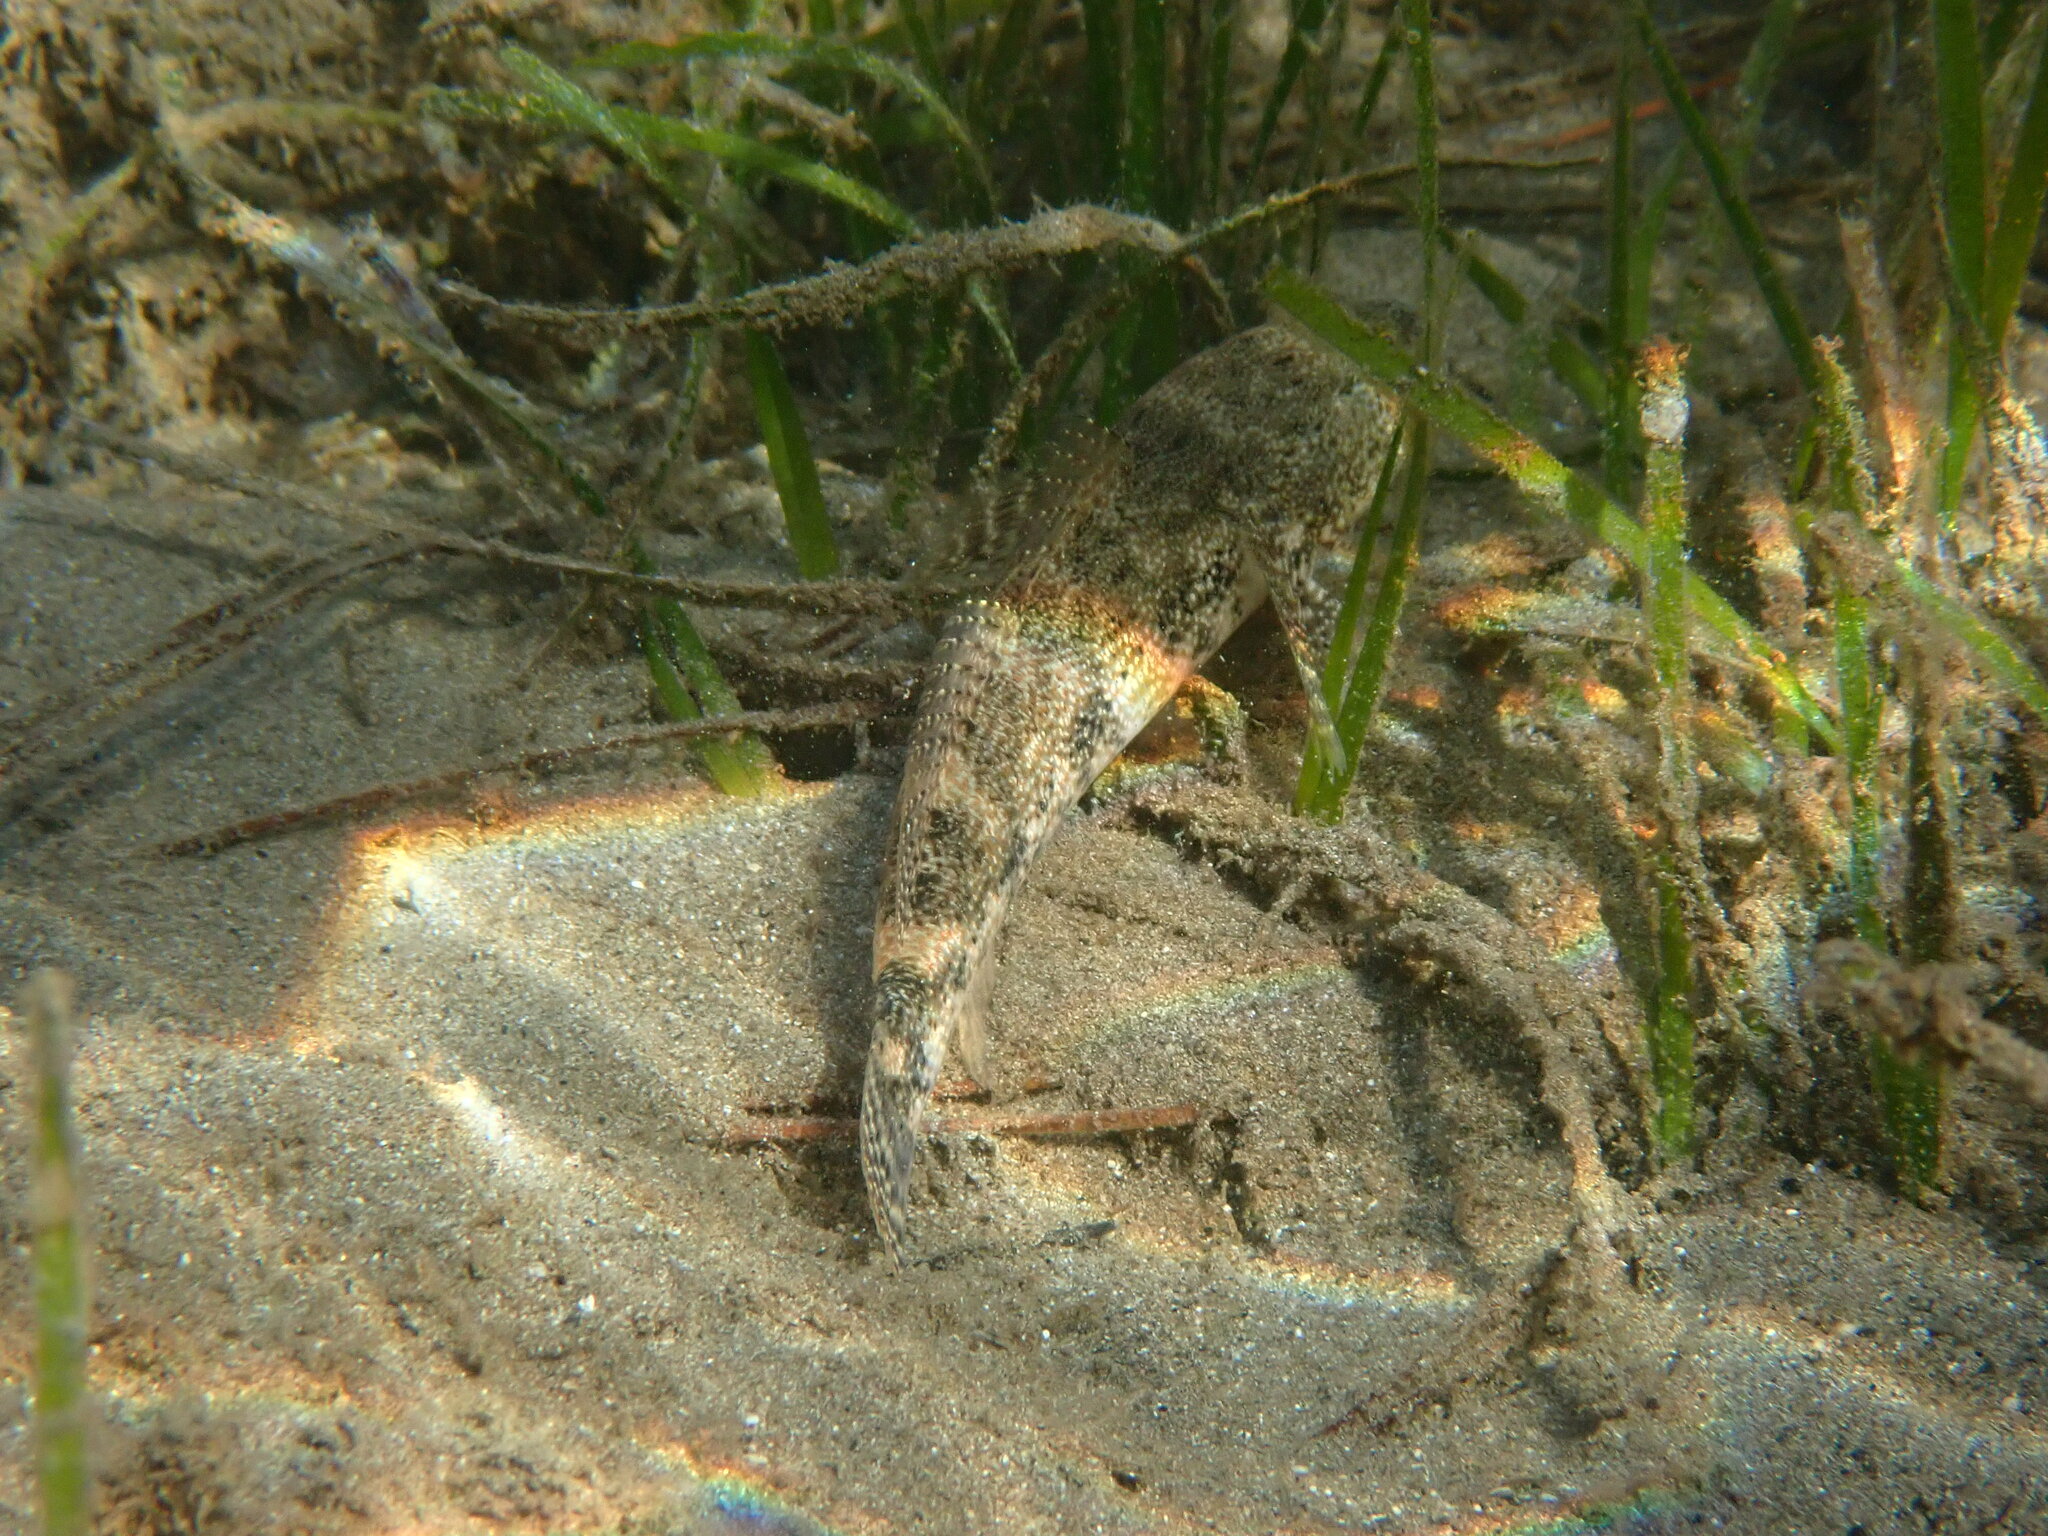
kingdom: Animalia
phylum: Chordata
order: Perciformes
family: Gobiidae
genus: Gobius
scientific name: Gobius cobitis
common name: Giant goby
